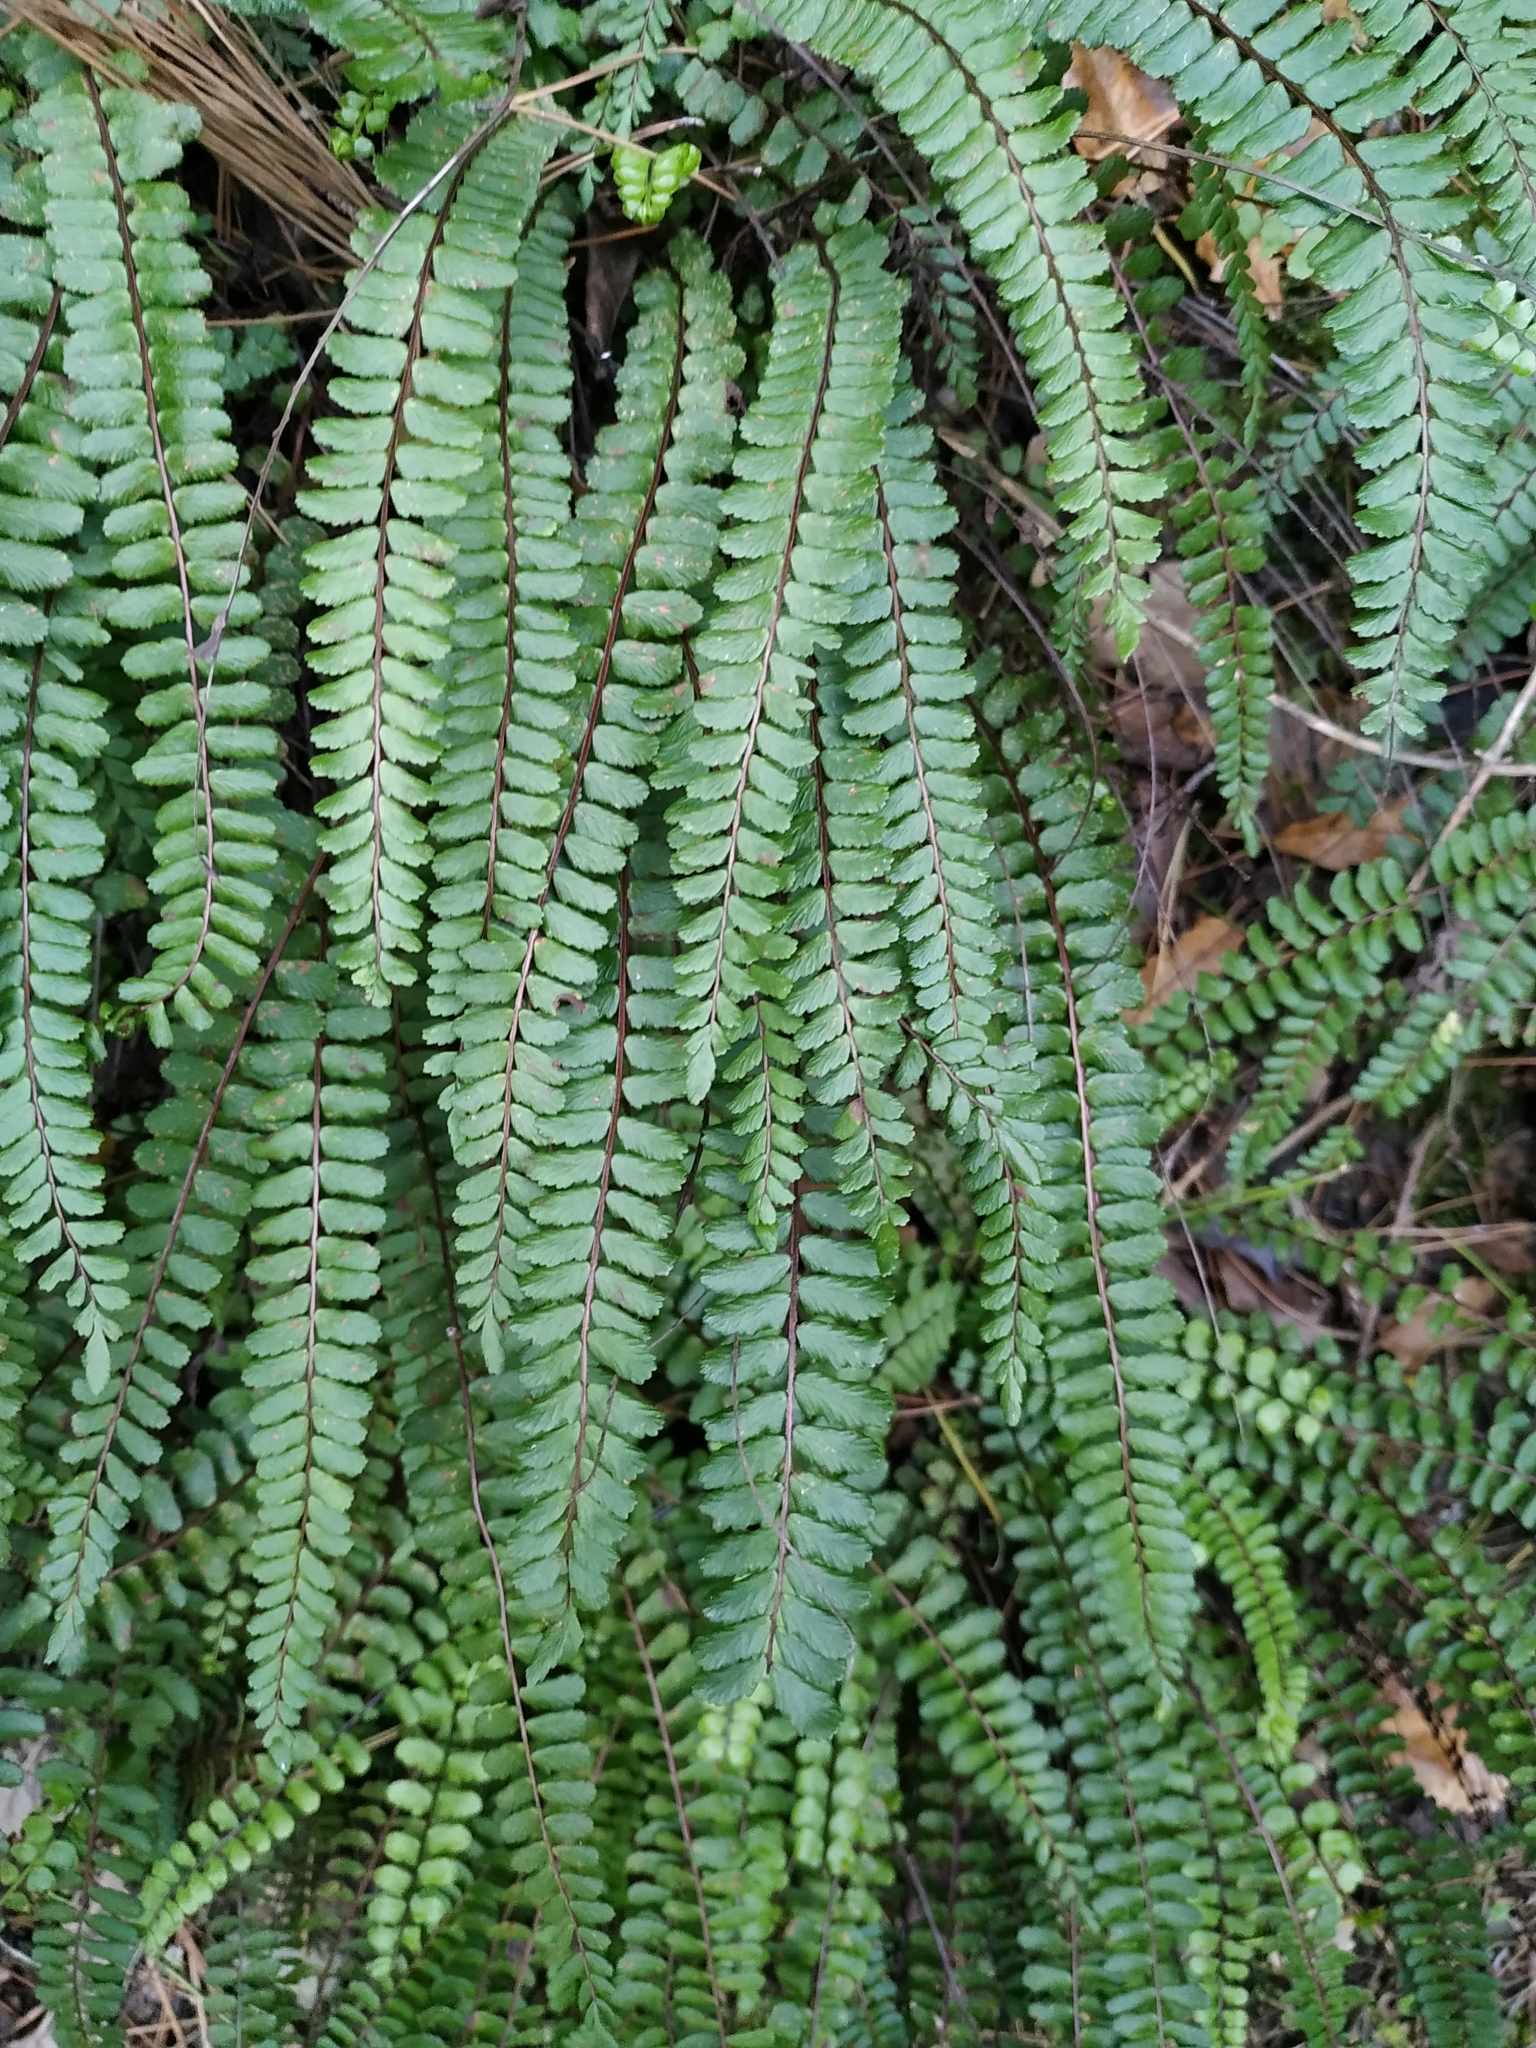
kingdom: Plantae
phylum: Tracheophyta
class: Polypodiopsida
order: Polypodiales
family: Aspleniaceae
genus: Asplenium
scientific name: Asplenium trichomanes
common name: Maidenhair spleenwort
